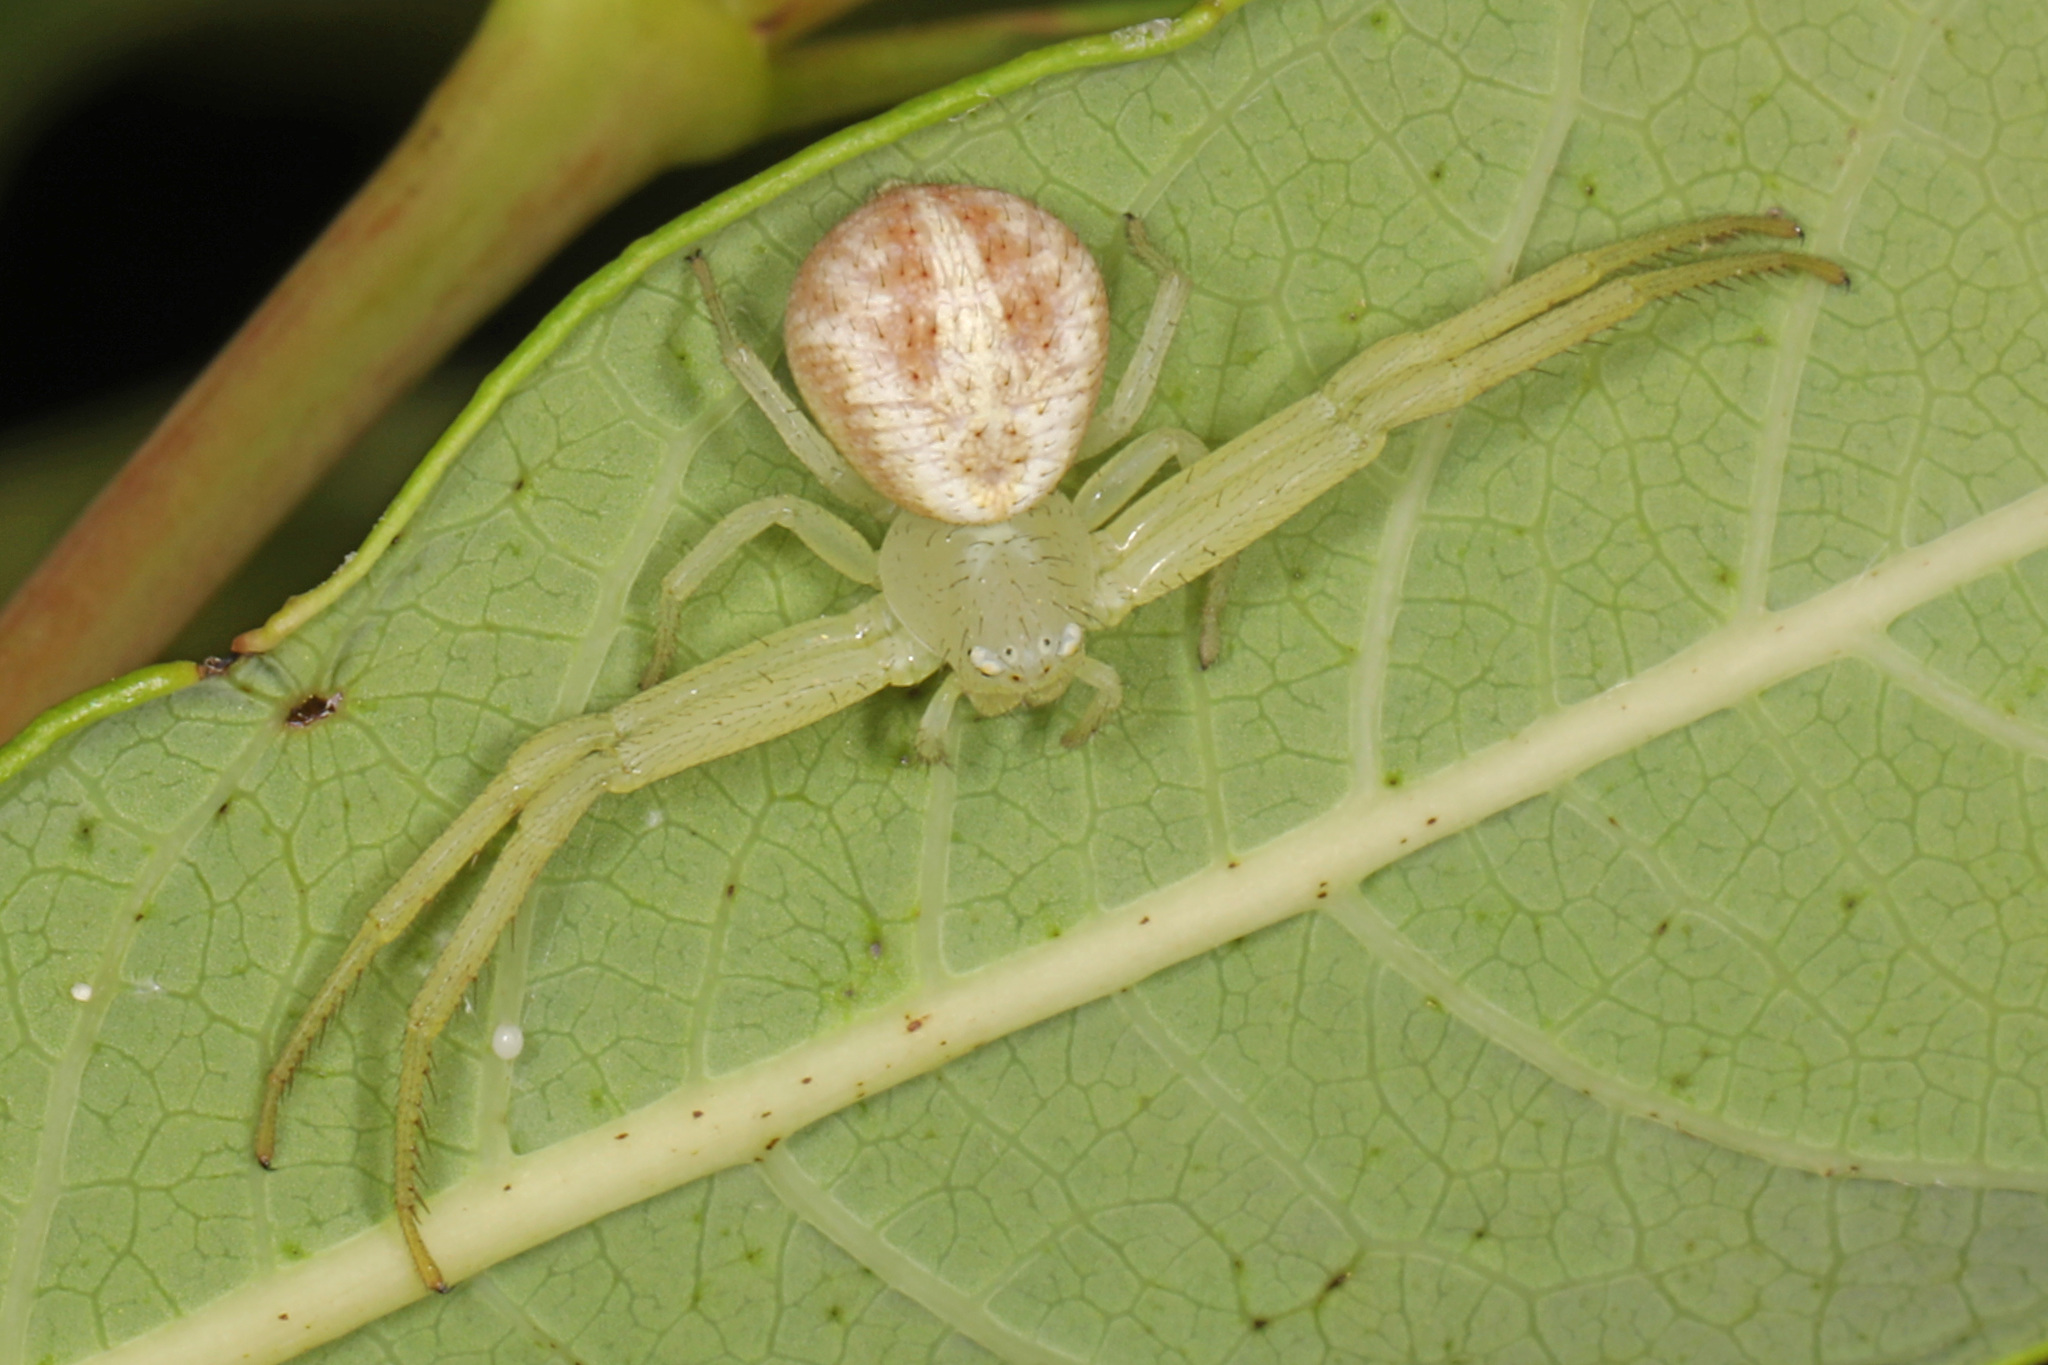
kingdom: Animalia
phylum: Arthropoda
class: Arachnida
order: Araneae
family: Thomisidae
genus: Mecaphesa
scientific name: Mecaphesa
